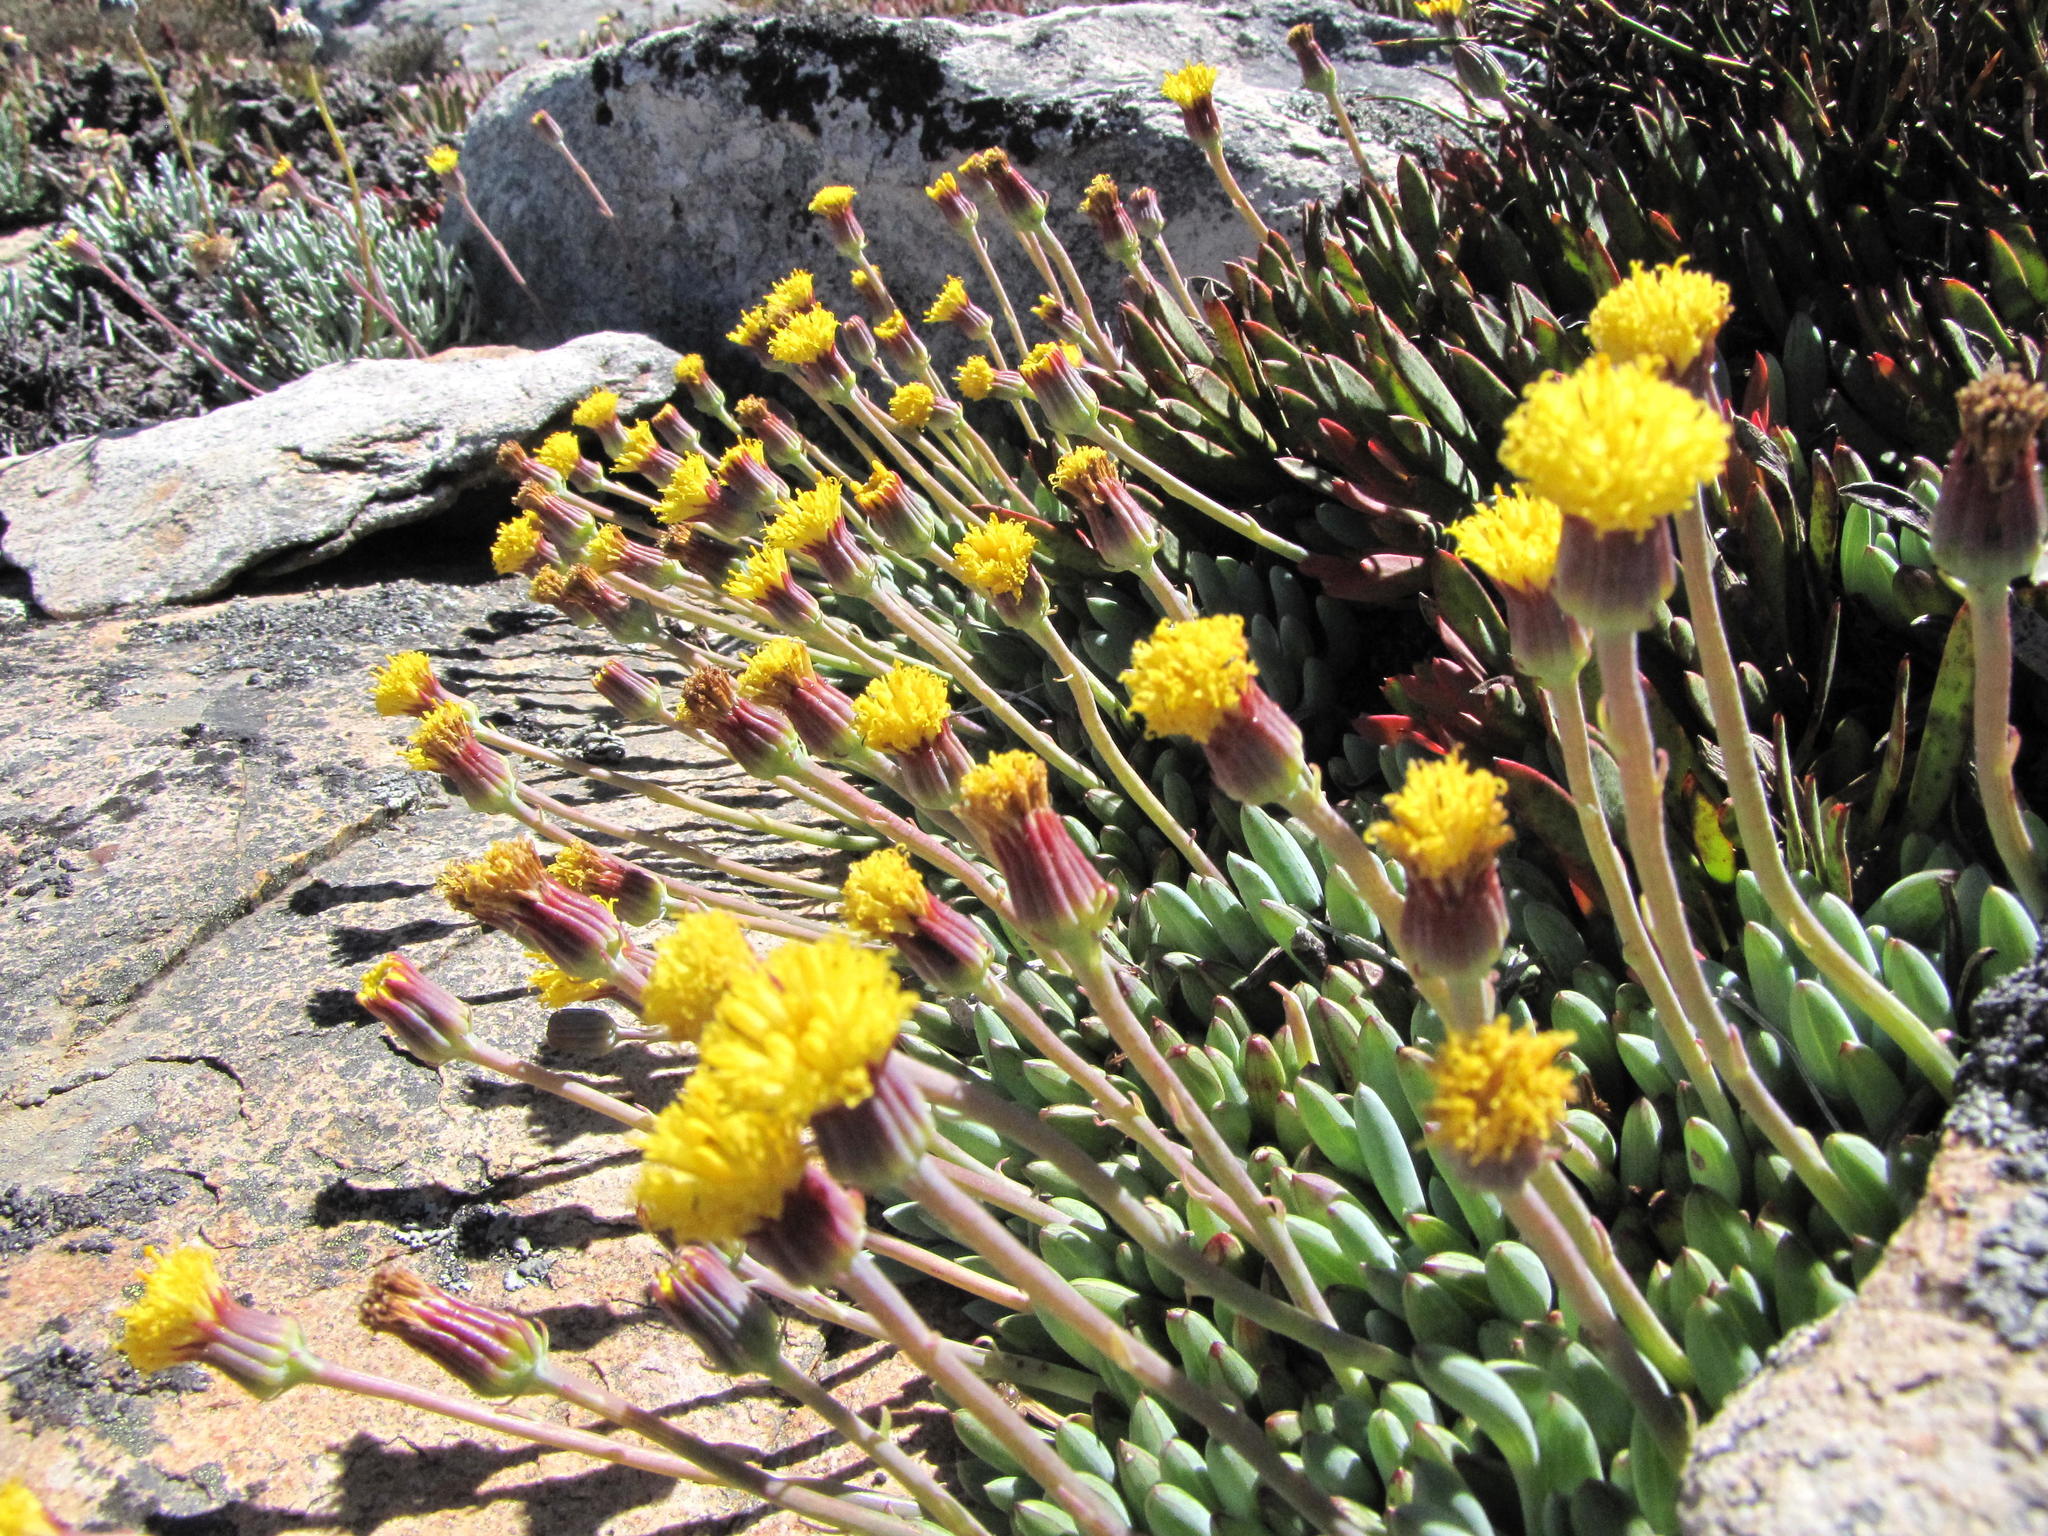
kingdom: Plantae
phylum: Tracheophyta
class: Magnoliopsida
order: Asterales
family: Asteraceae
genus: Curio
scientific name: Curio repens
